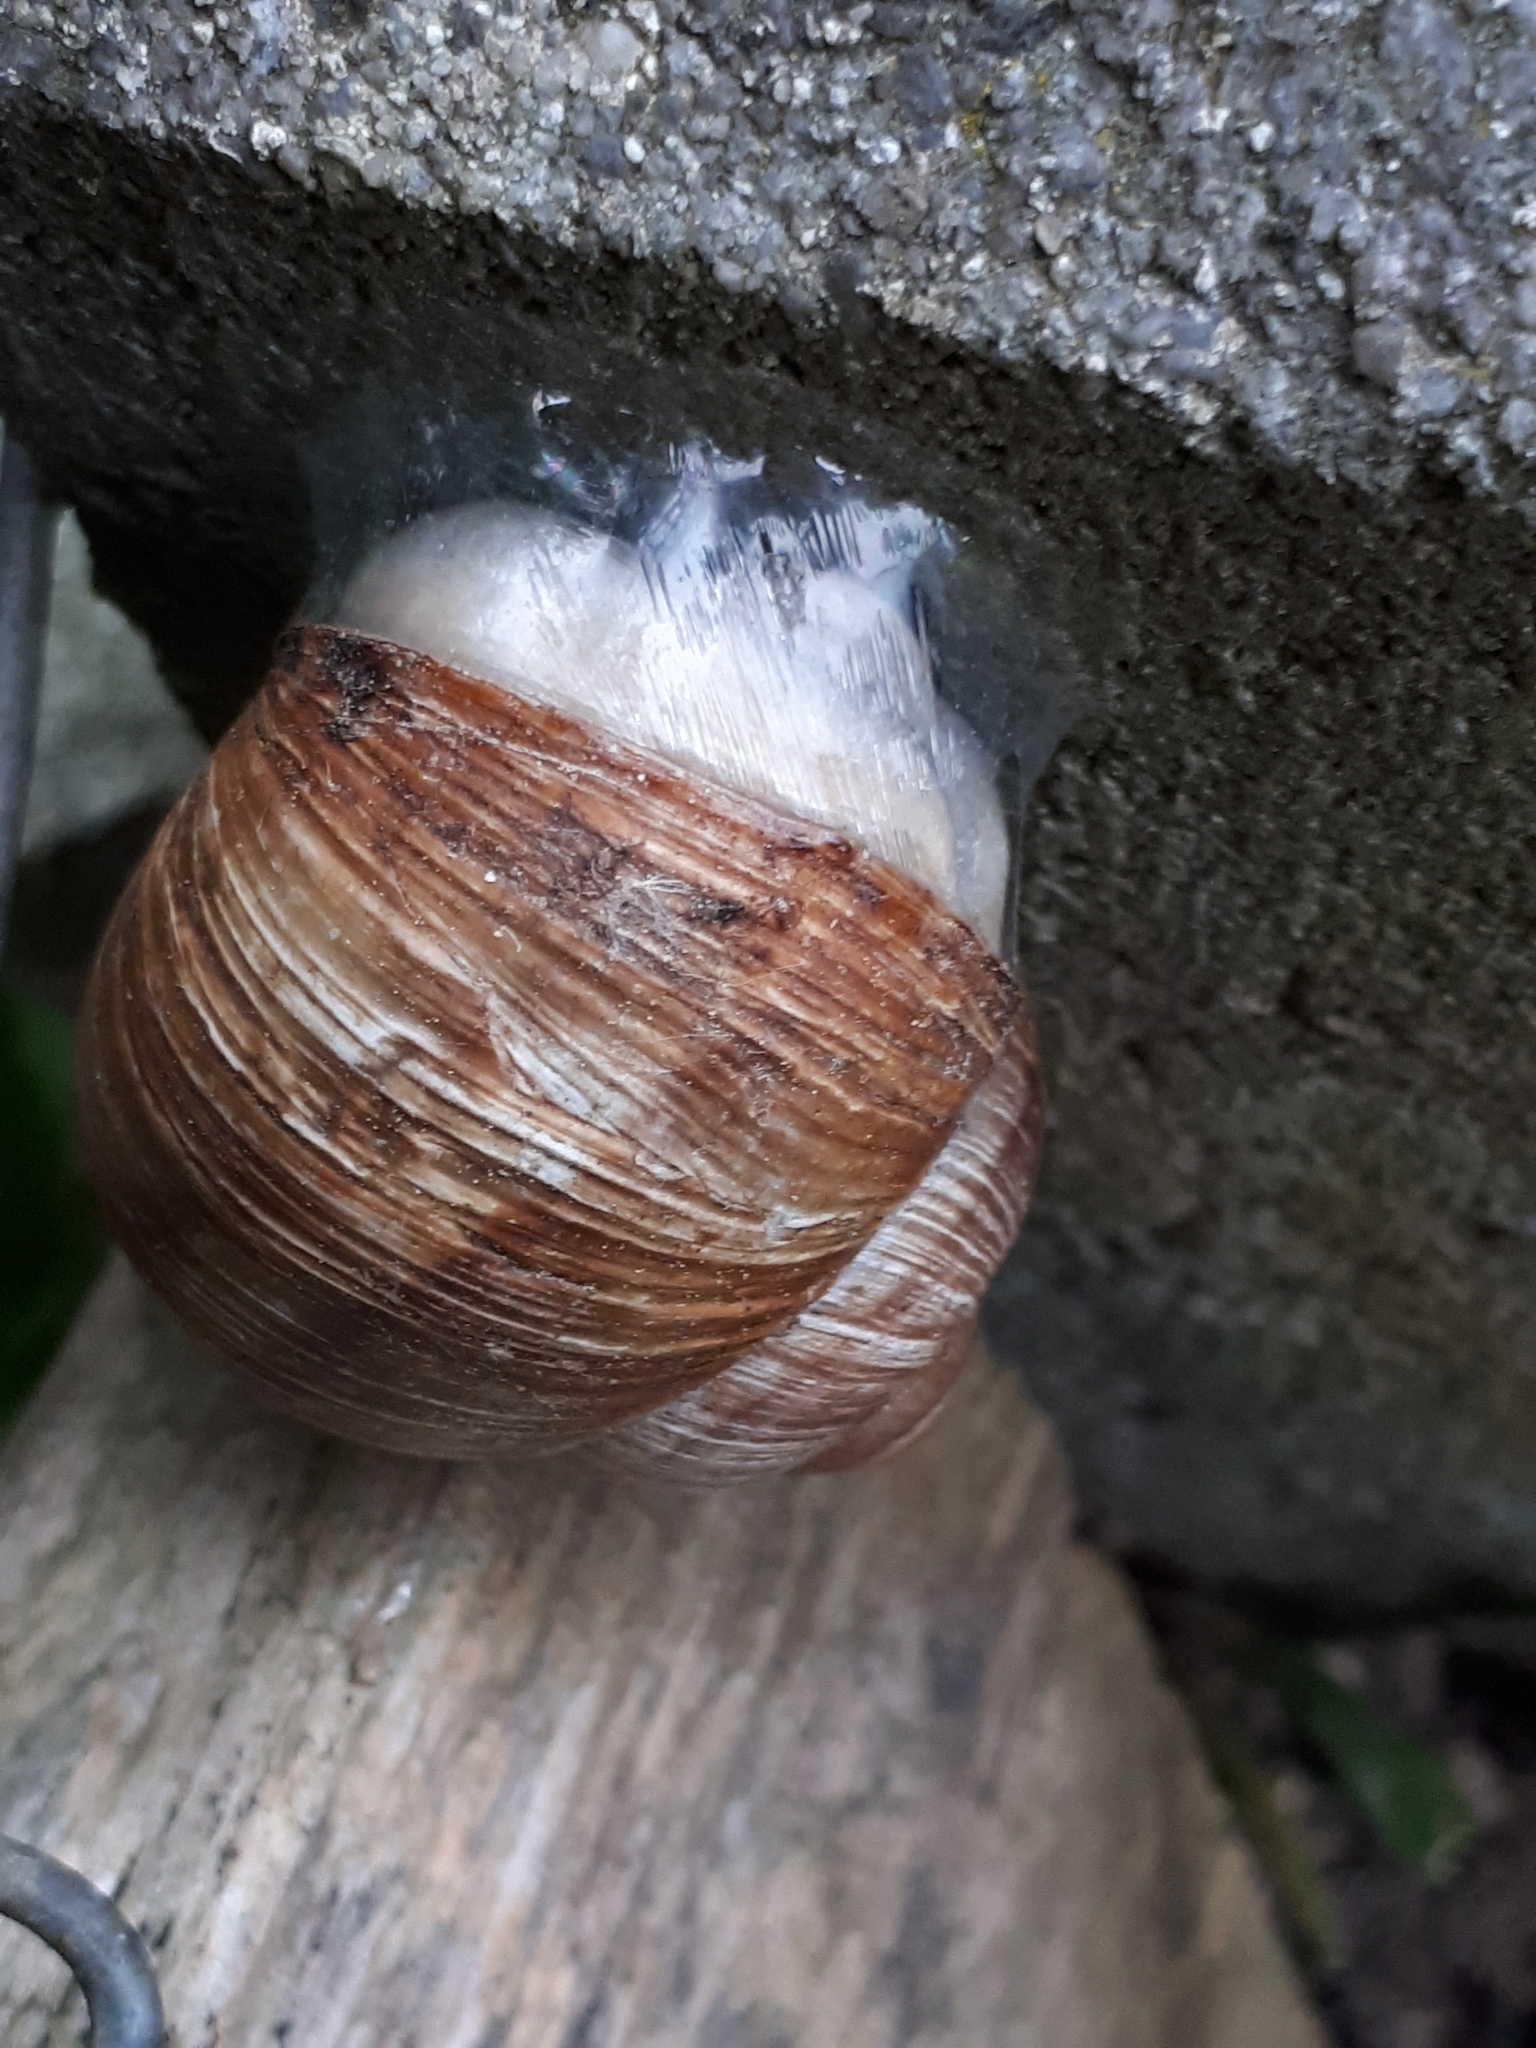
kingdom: Animalia
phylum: Mollusca
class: Gastropoda
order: Stylommatophora
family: Helicidae
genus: Helix
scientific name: Helix pomatia
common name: Roman snail
